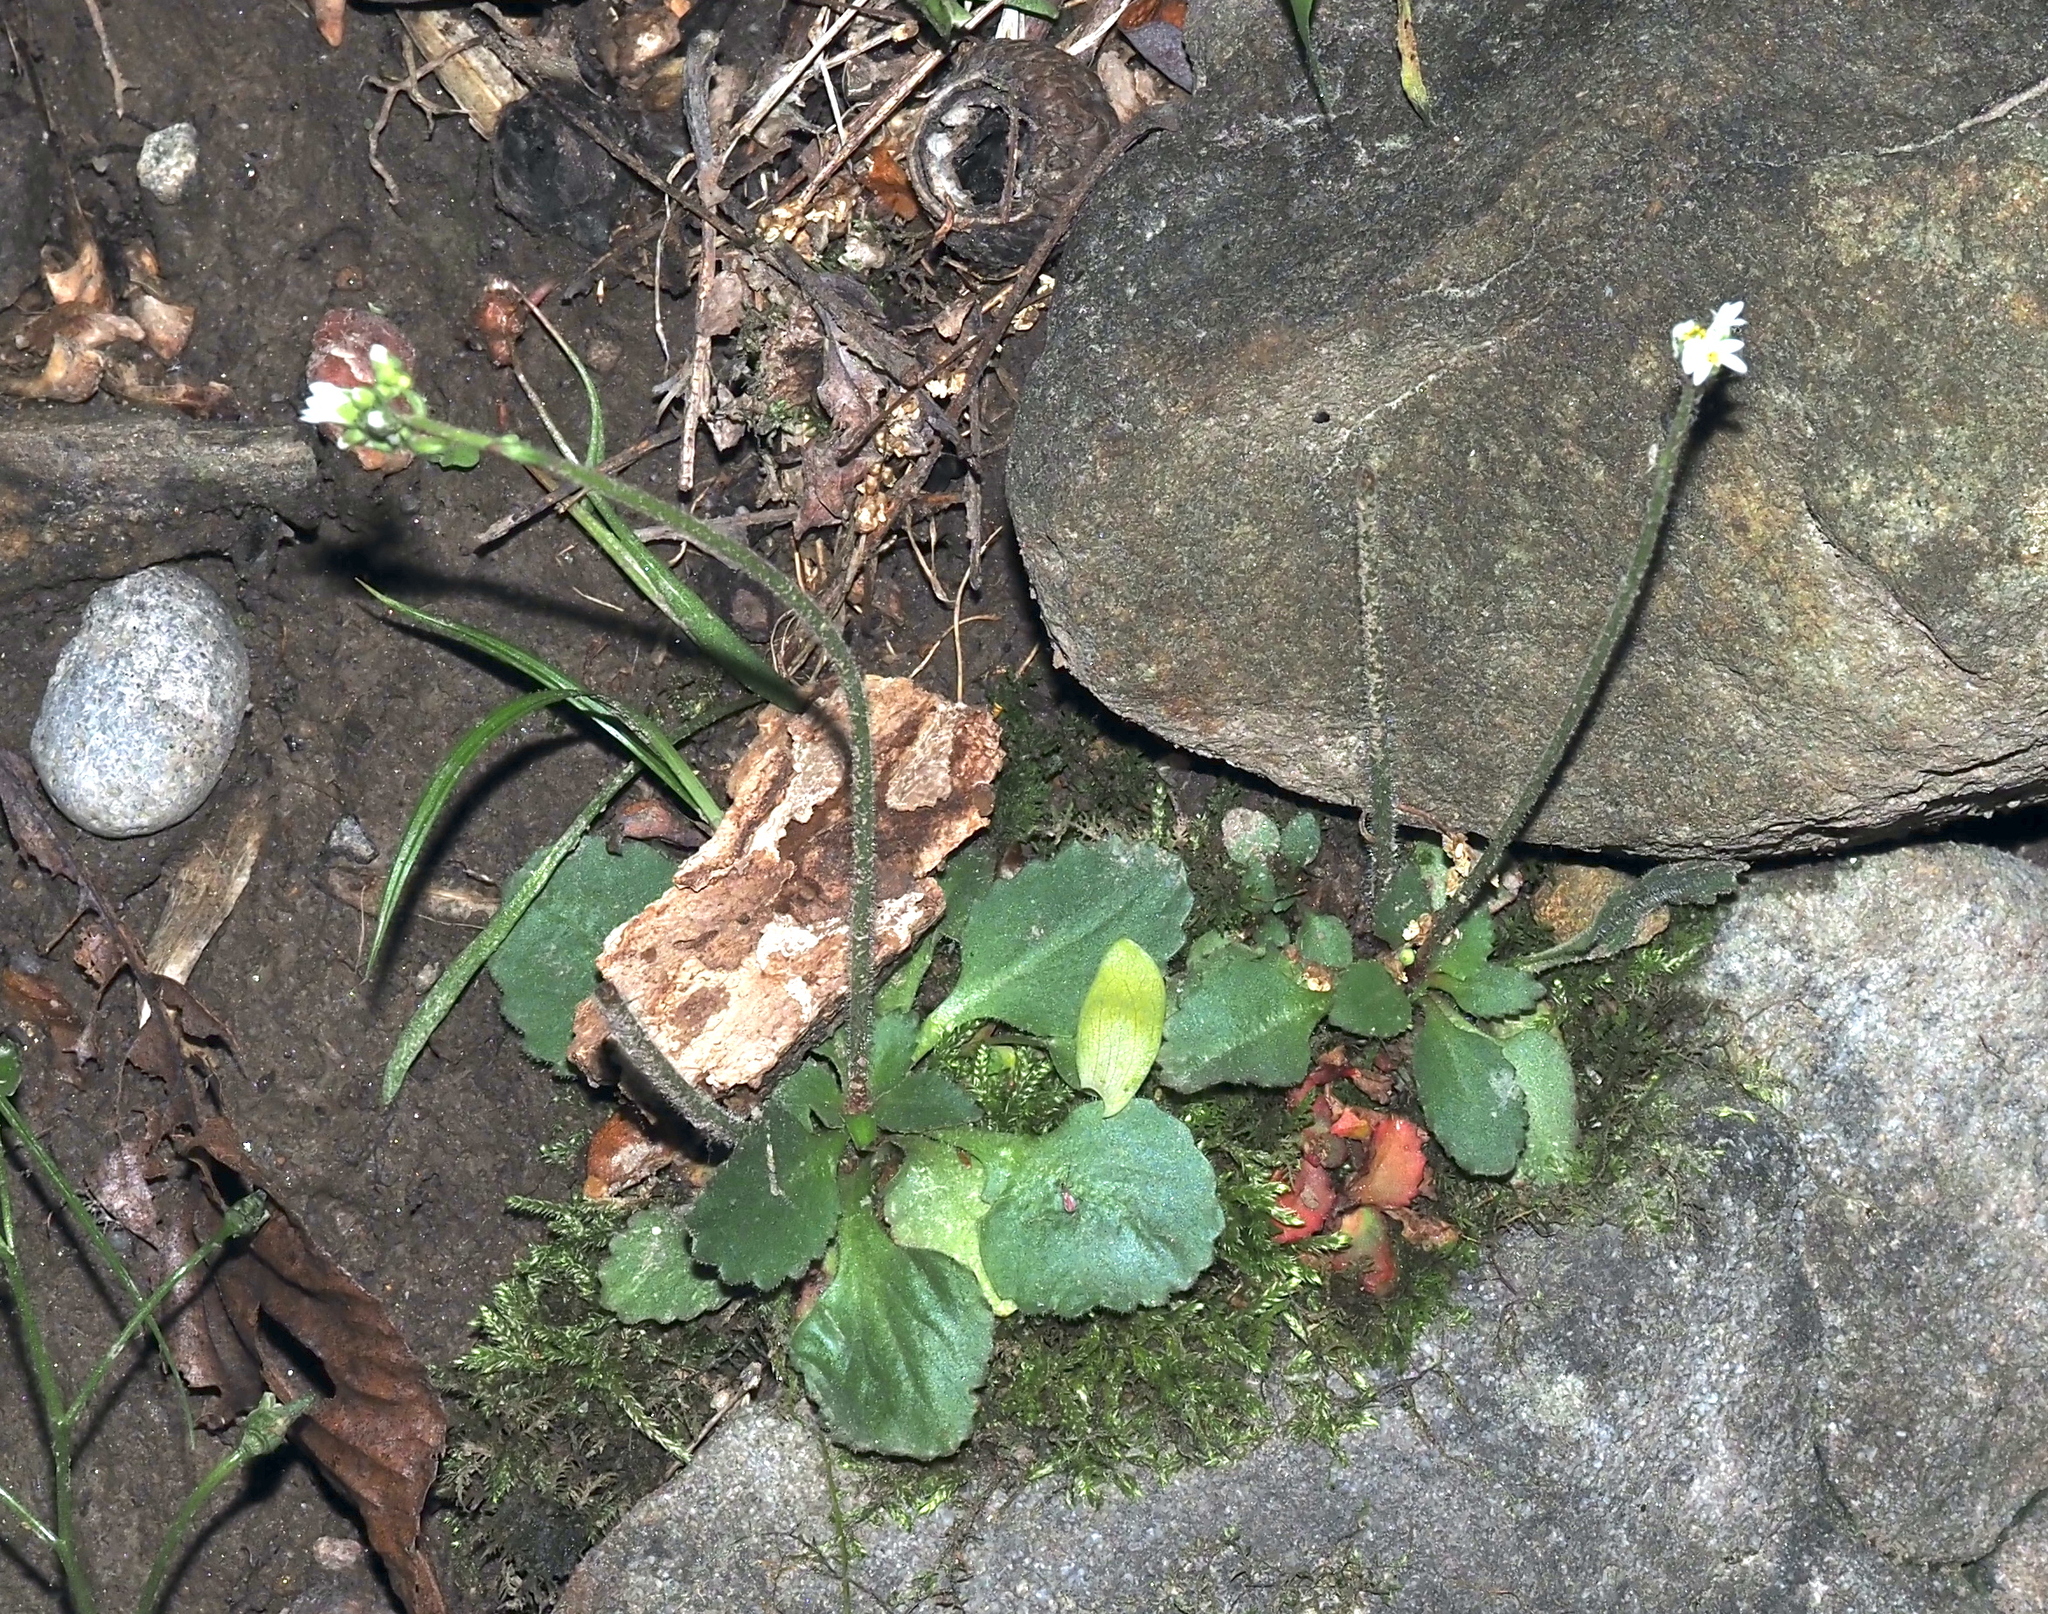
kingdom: Plantae
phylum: Tracheophyta
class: Magnoliopsida
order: Saxifragales
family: Saxifragaceae
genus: Micranthes
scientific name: Micranthes virginiensis
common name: Early saxifrage
